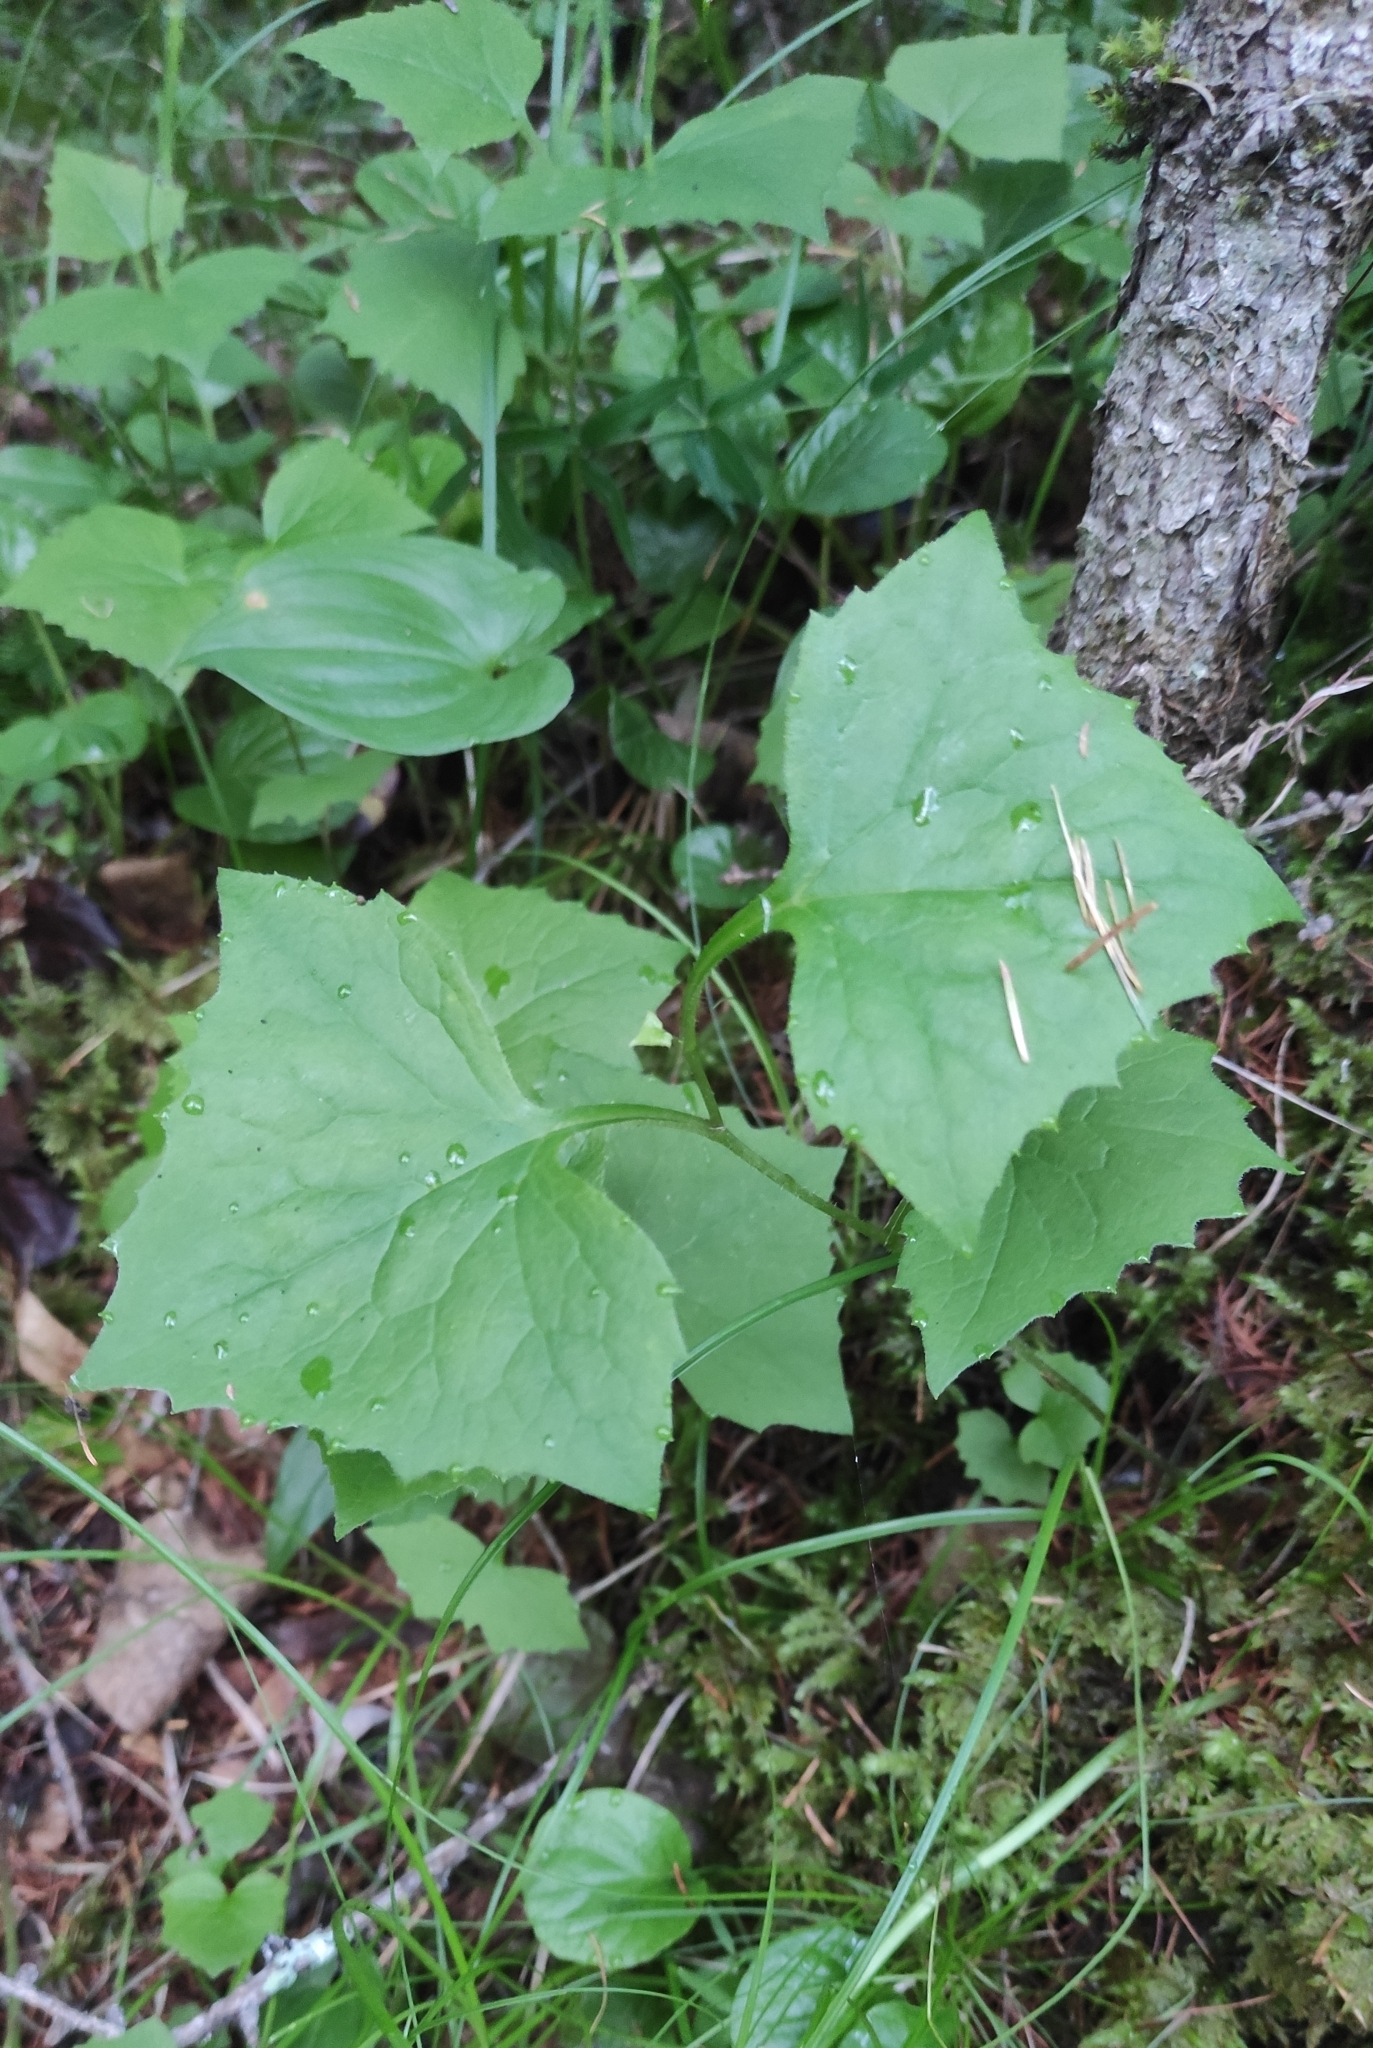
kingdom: Plantae
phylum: Tracheophyta
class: Magnoliopsida
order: Asterales
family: Asteraceae
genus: Parasenecio
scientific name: Parasenecio hastatus
